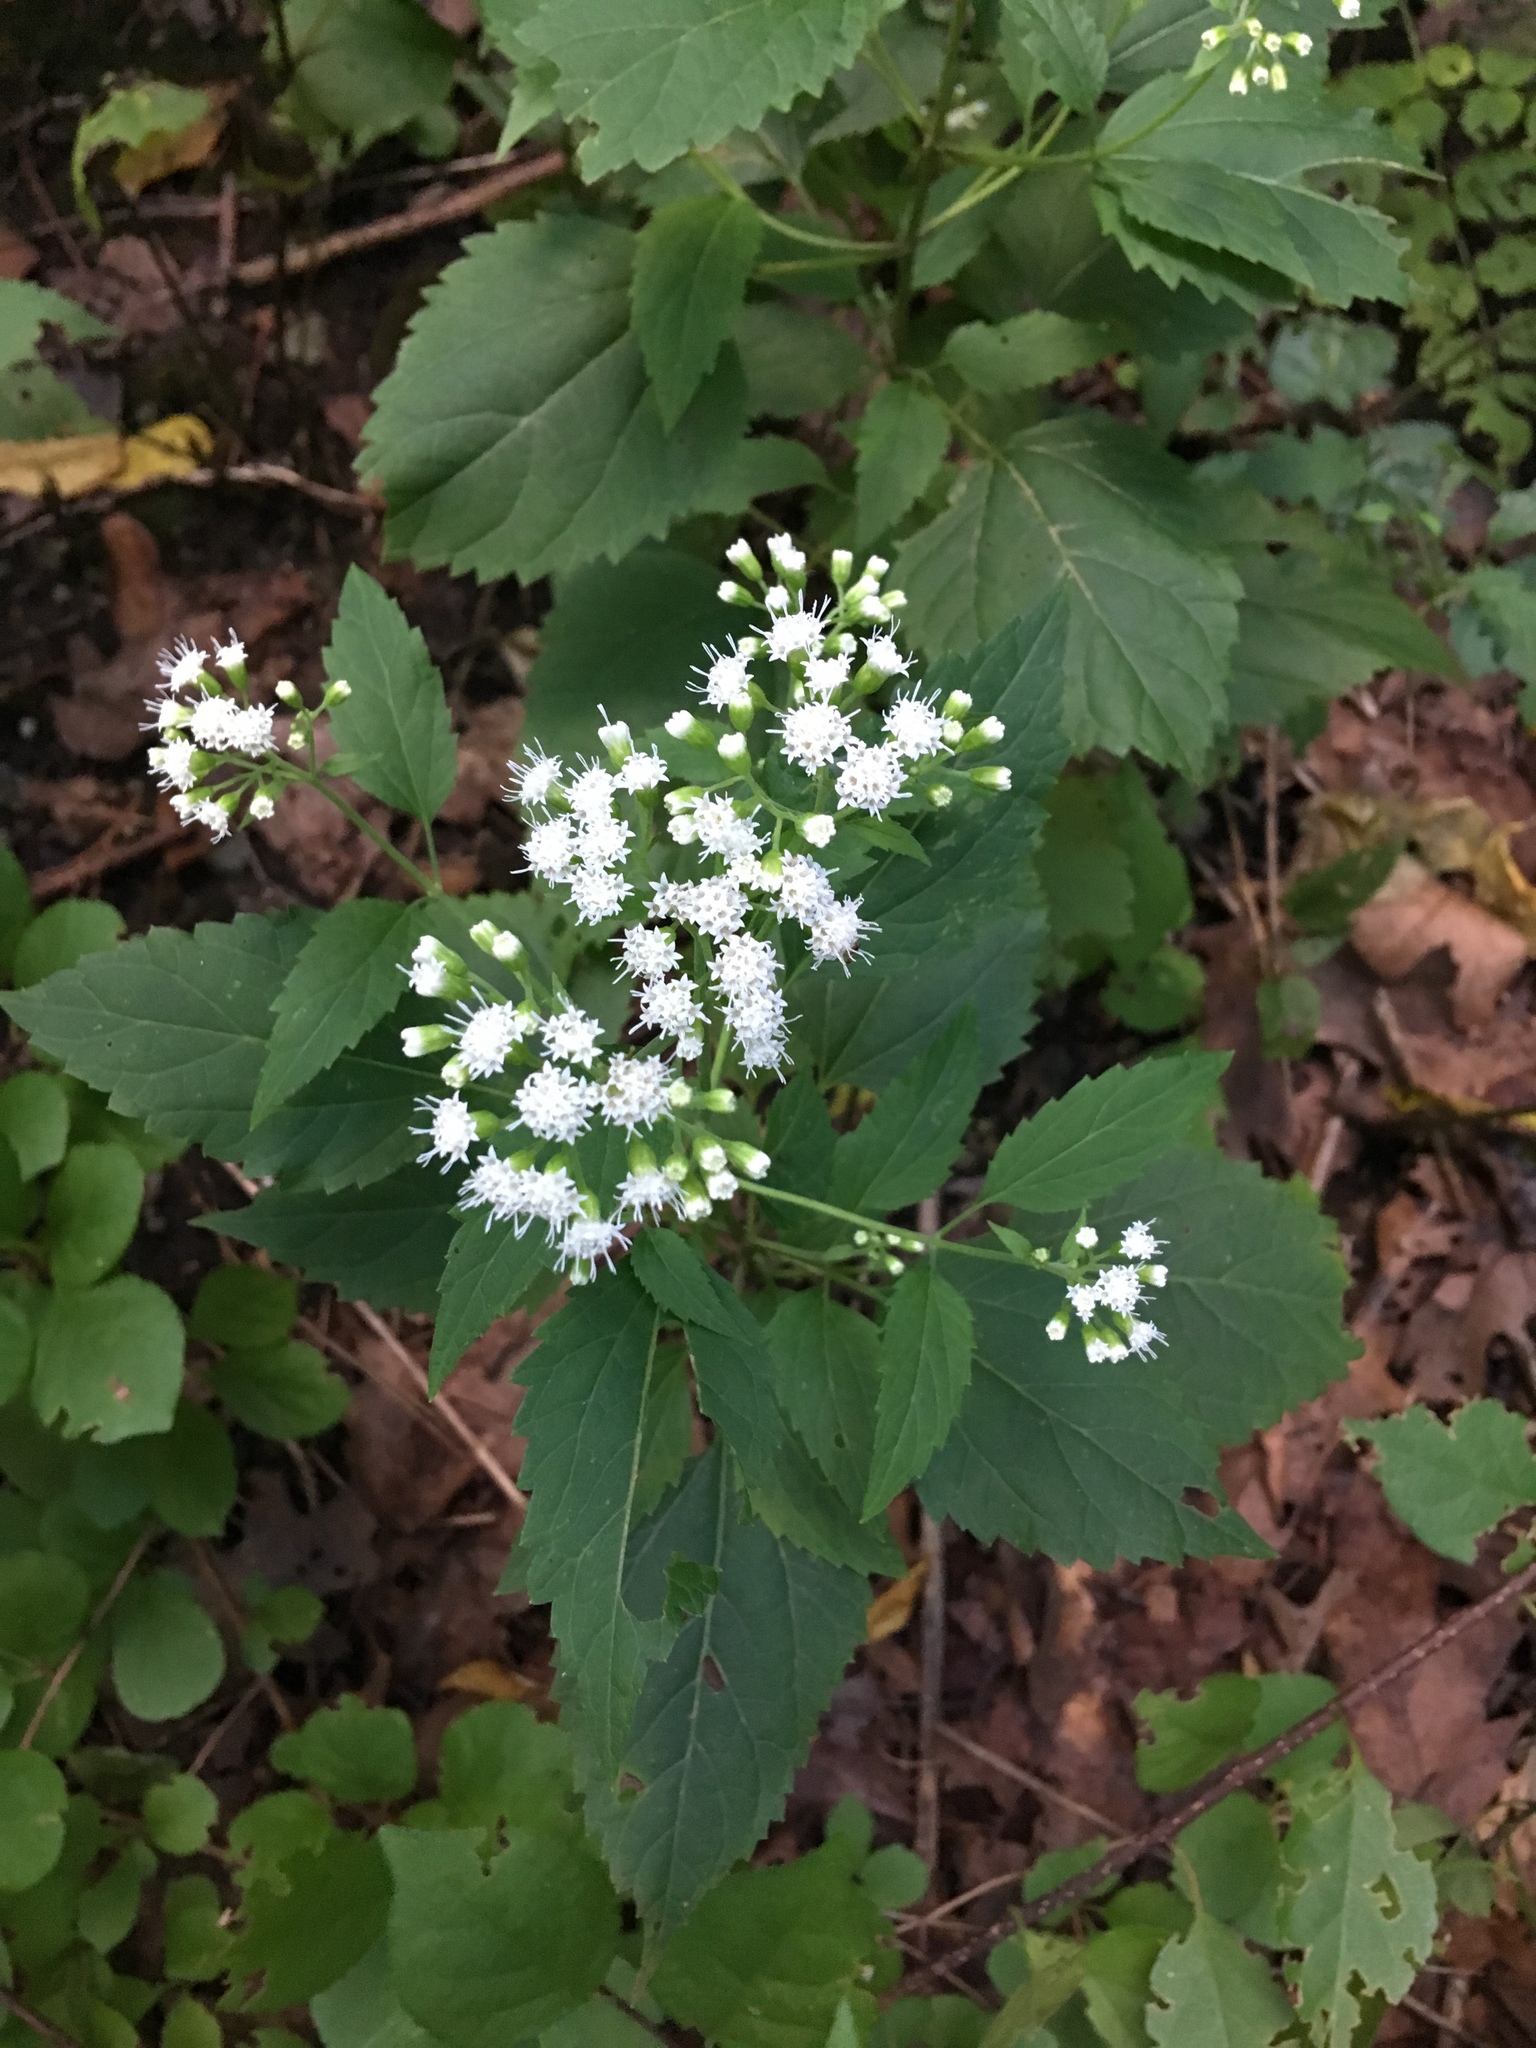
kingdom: Plantae
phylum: Tracheophyta
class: Magnoliopsida
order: Asterales
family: Asteraceae
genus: Ageratina
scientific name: Ageratina altissima
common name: White snakeroot
